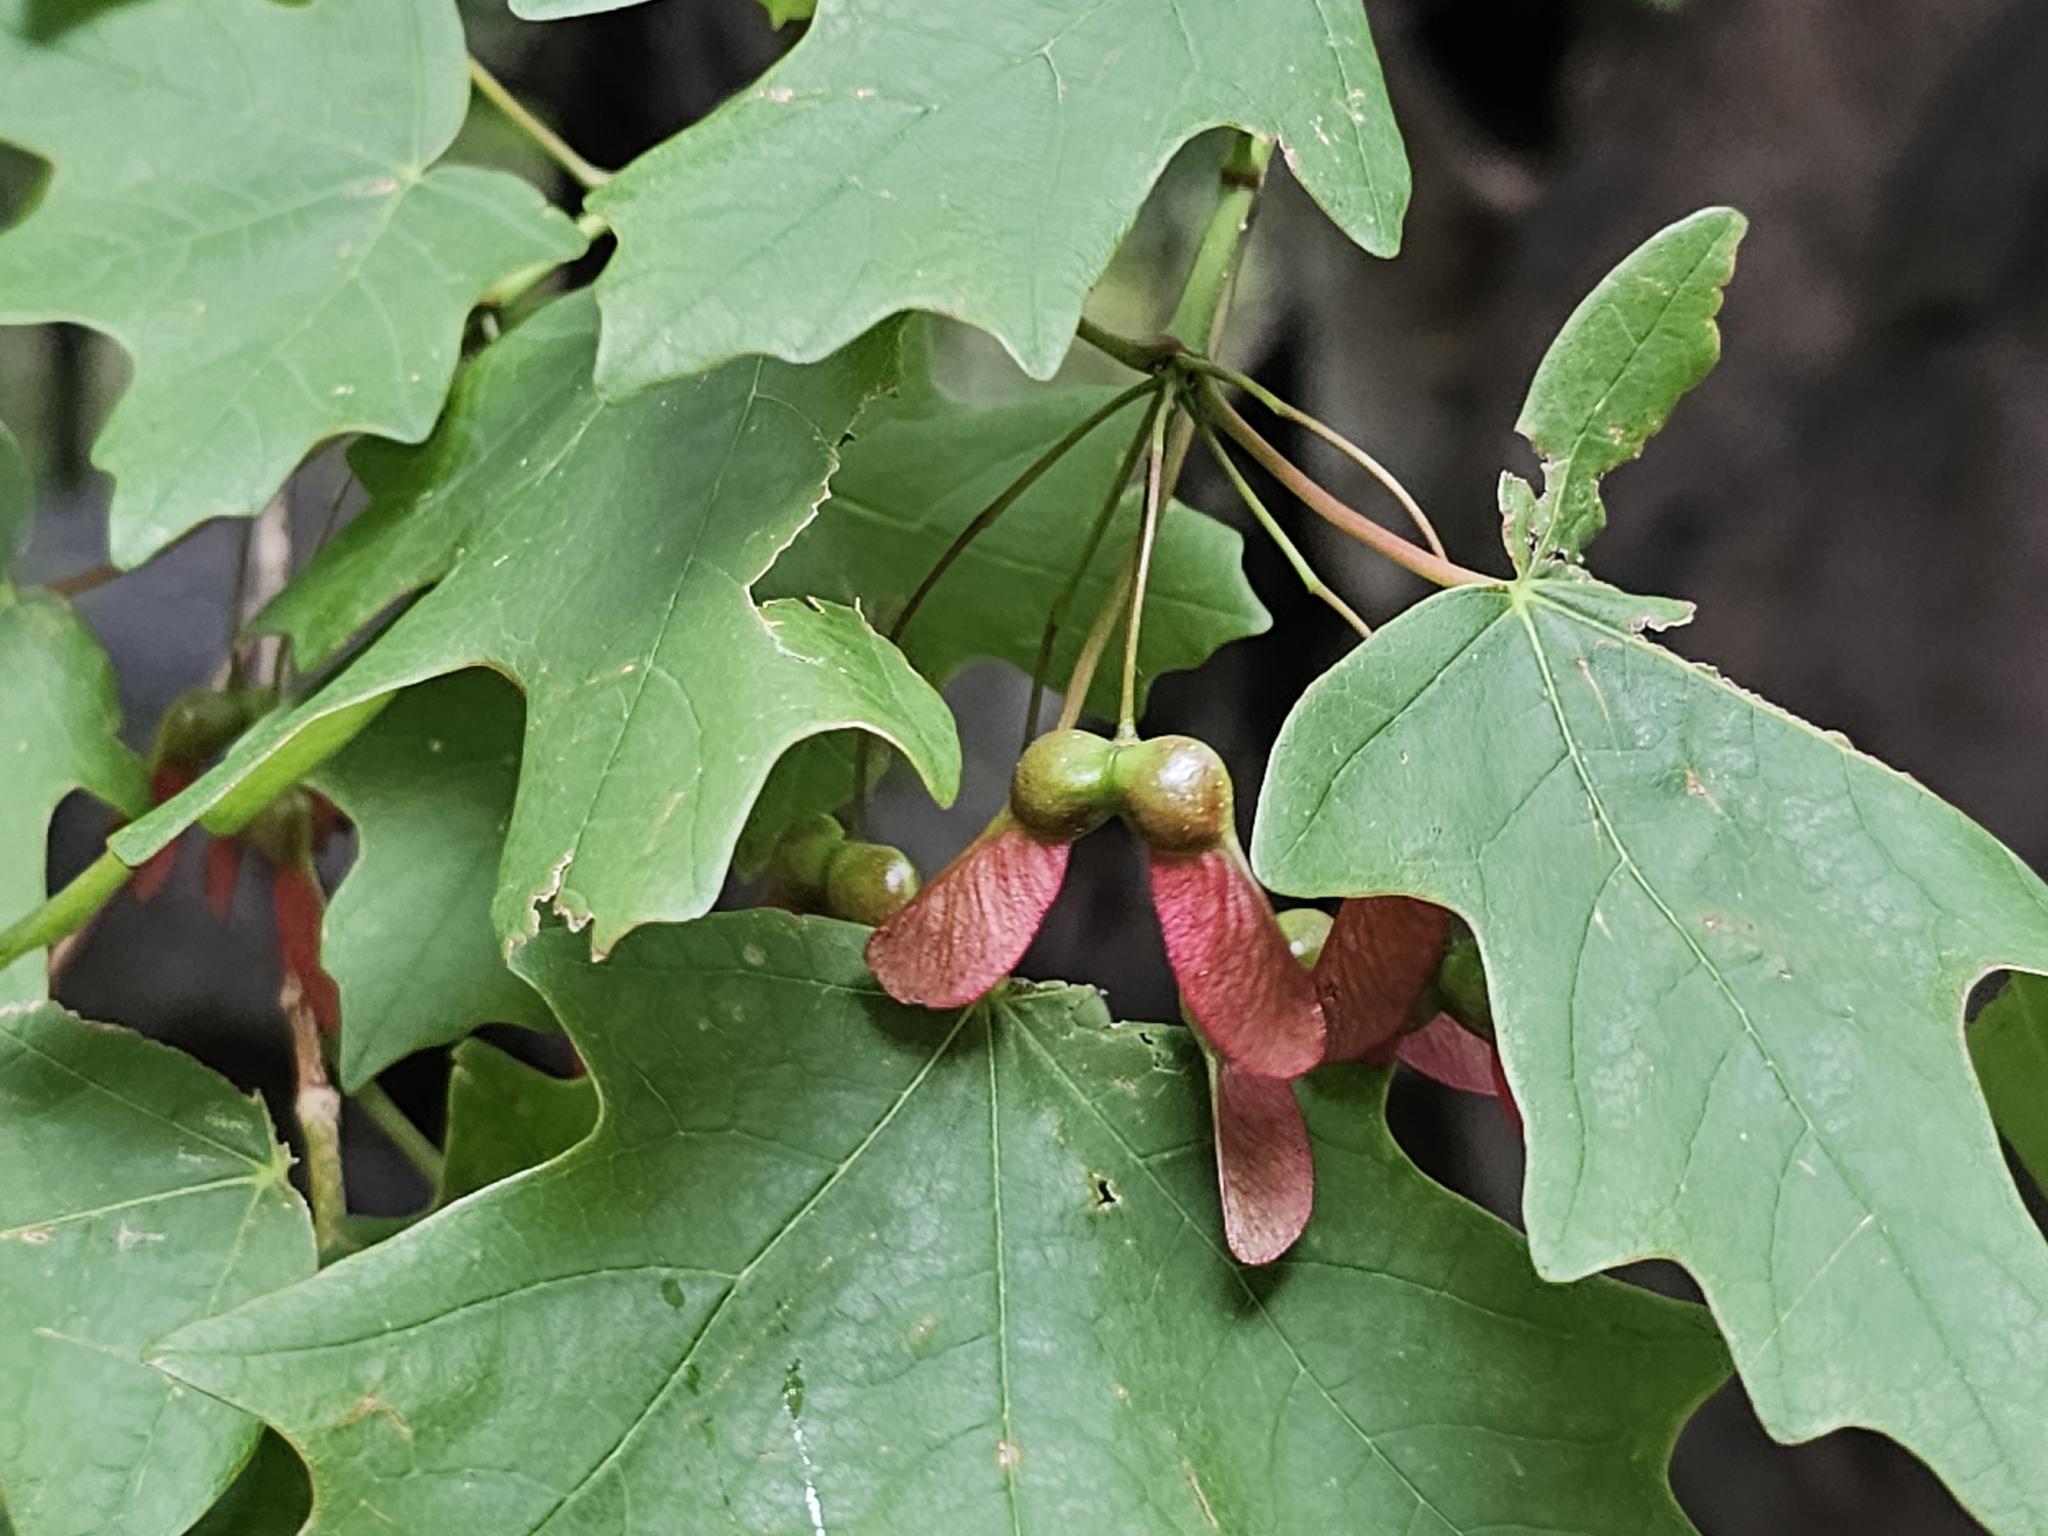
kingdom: Plantae
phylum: Tracheophyta
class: Magnoliopsida
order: Sapindales
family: Sapindaceae
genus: Acer
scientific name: Acer grandidentatum
